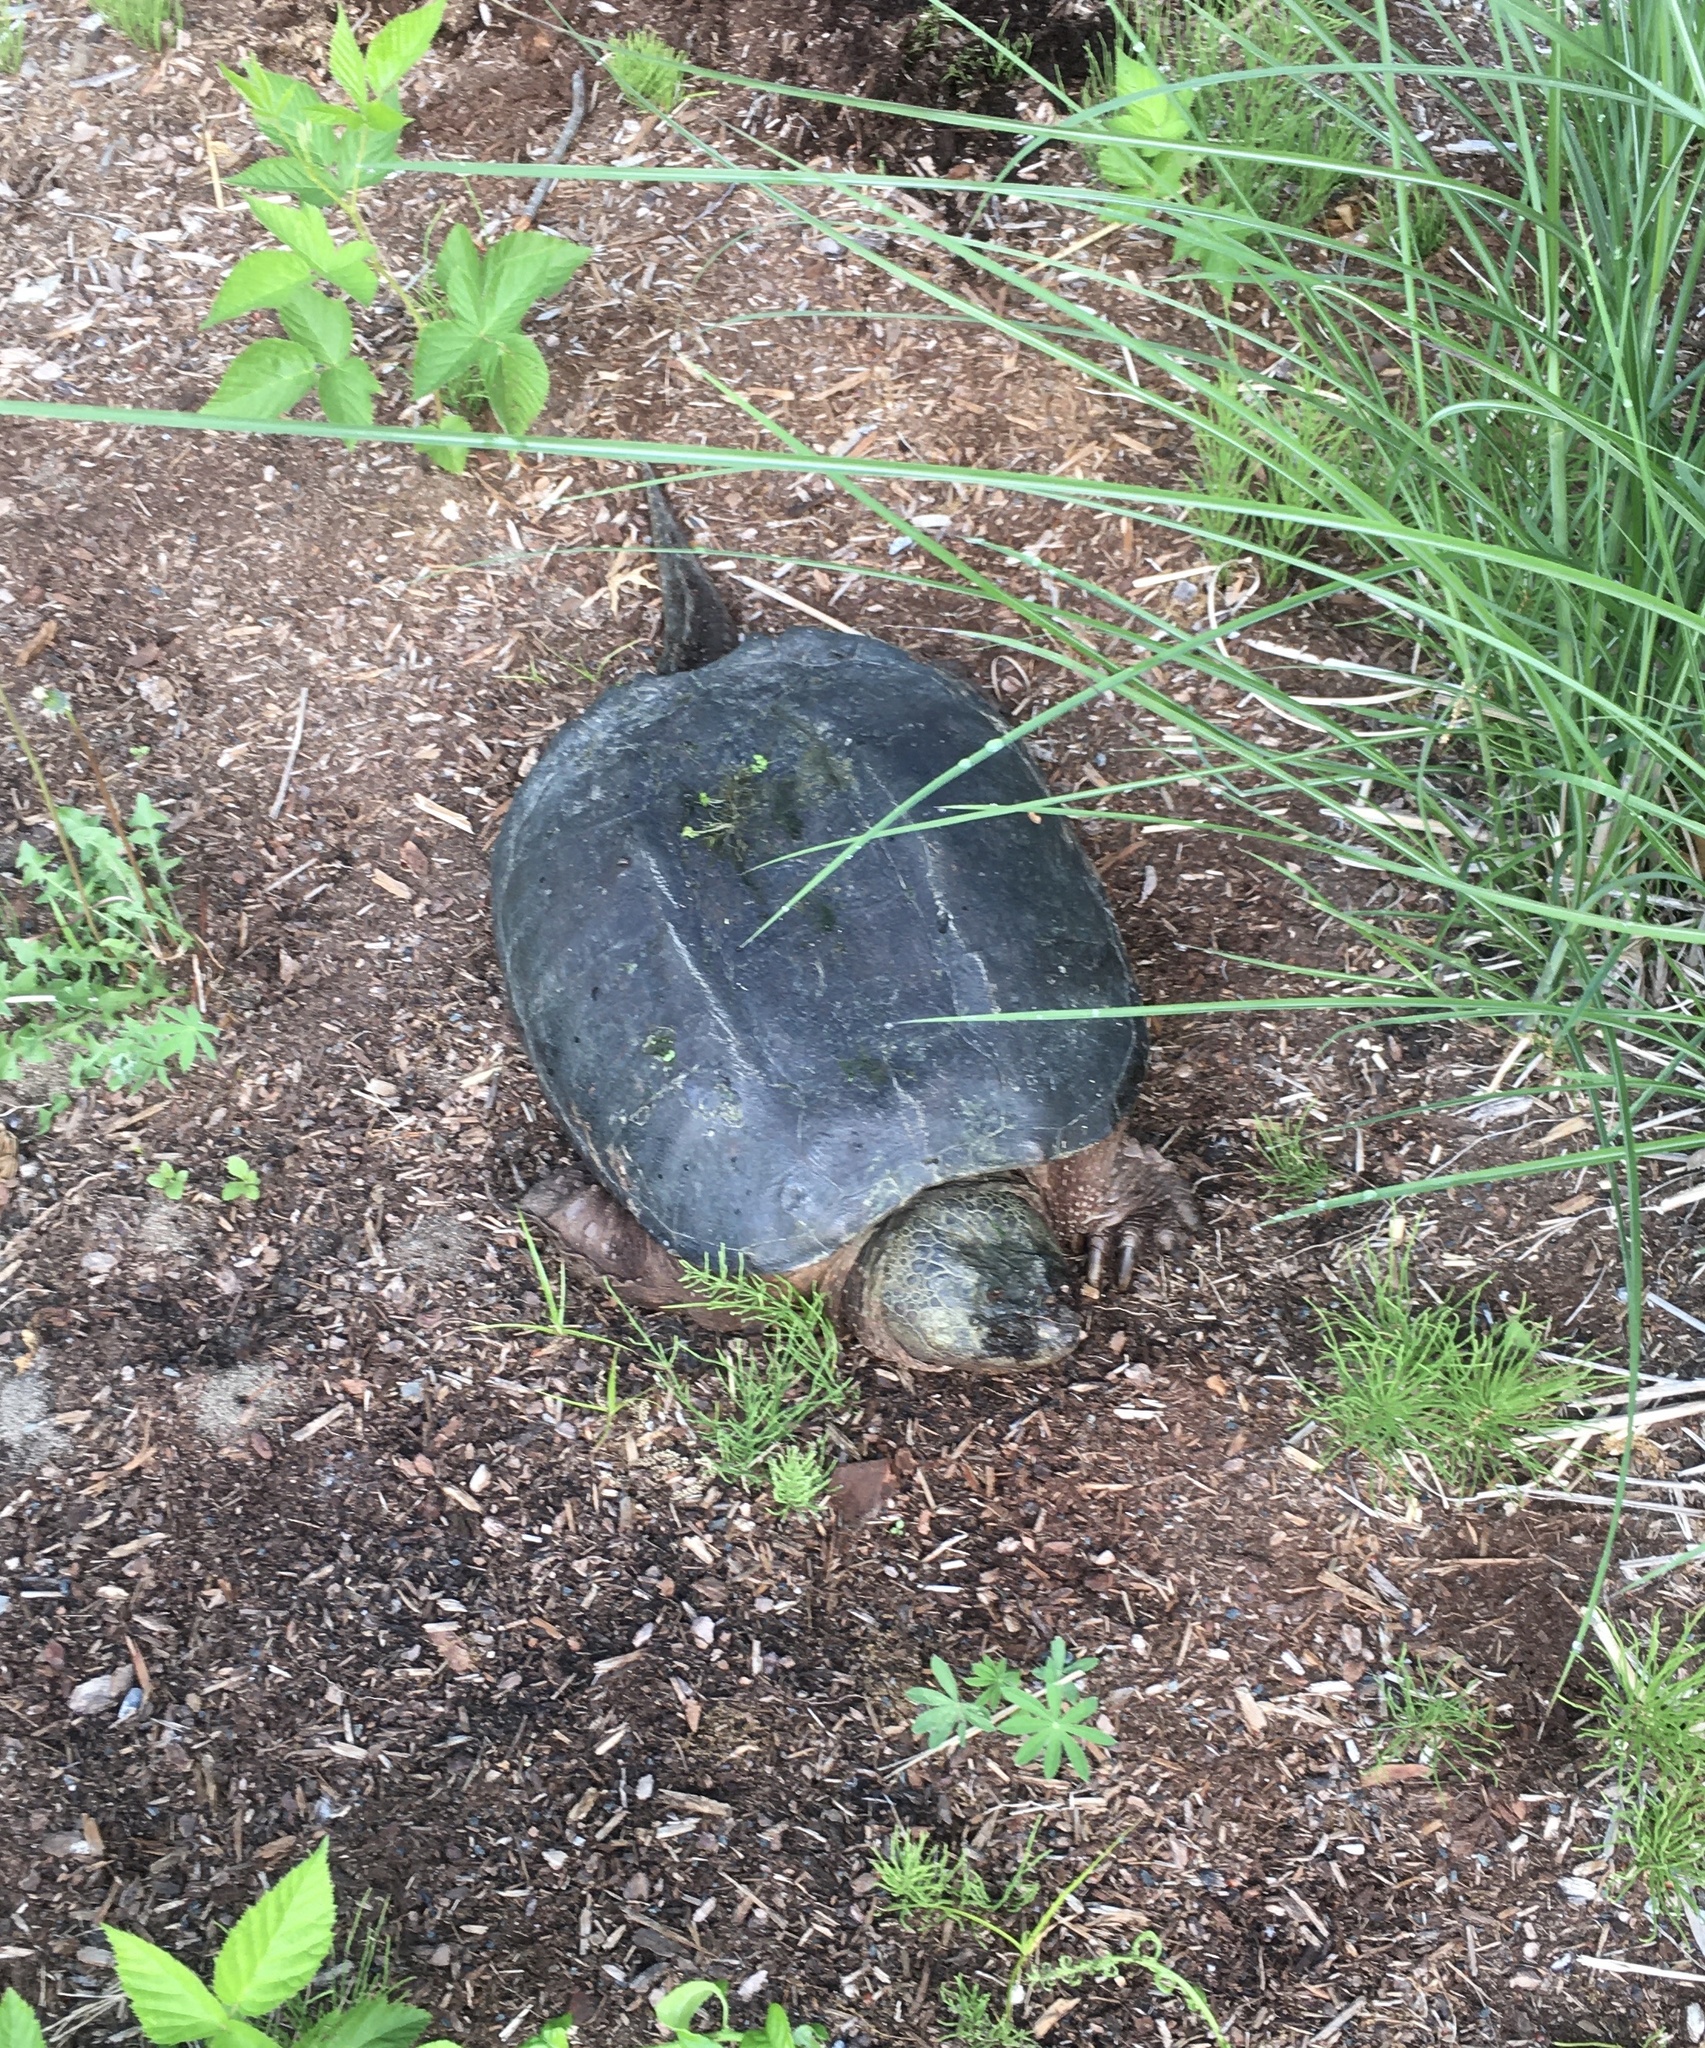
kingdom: Animalia
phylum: Chordata
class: Testudines
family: Chelydridae
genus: Chelydra
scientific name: Chelydra serpentina
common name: Common snapping turtle
